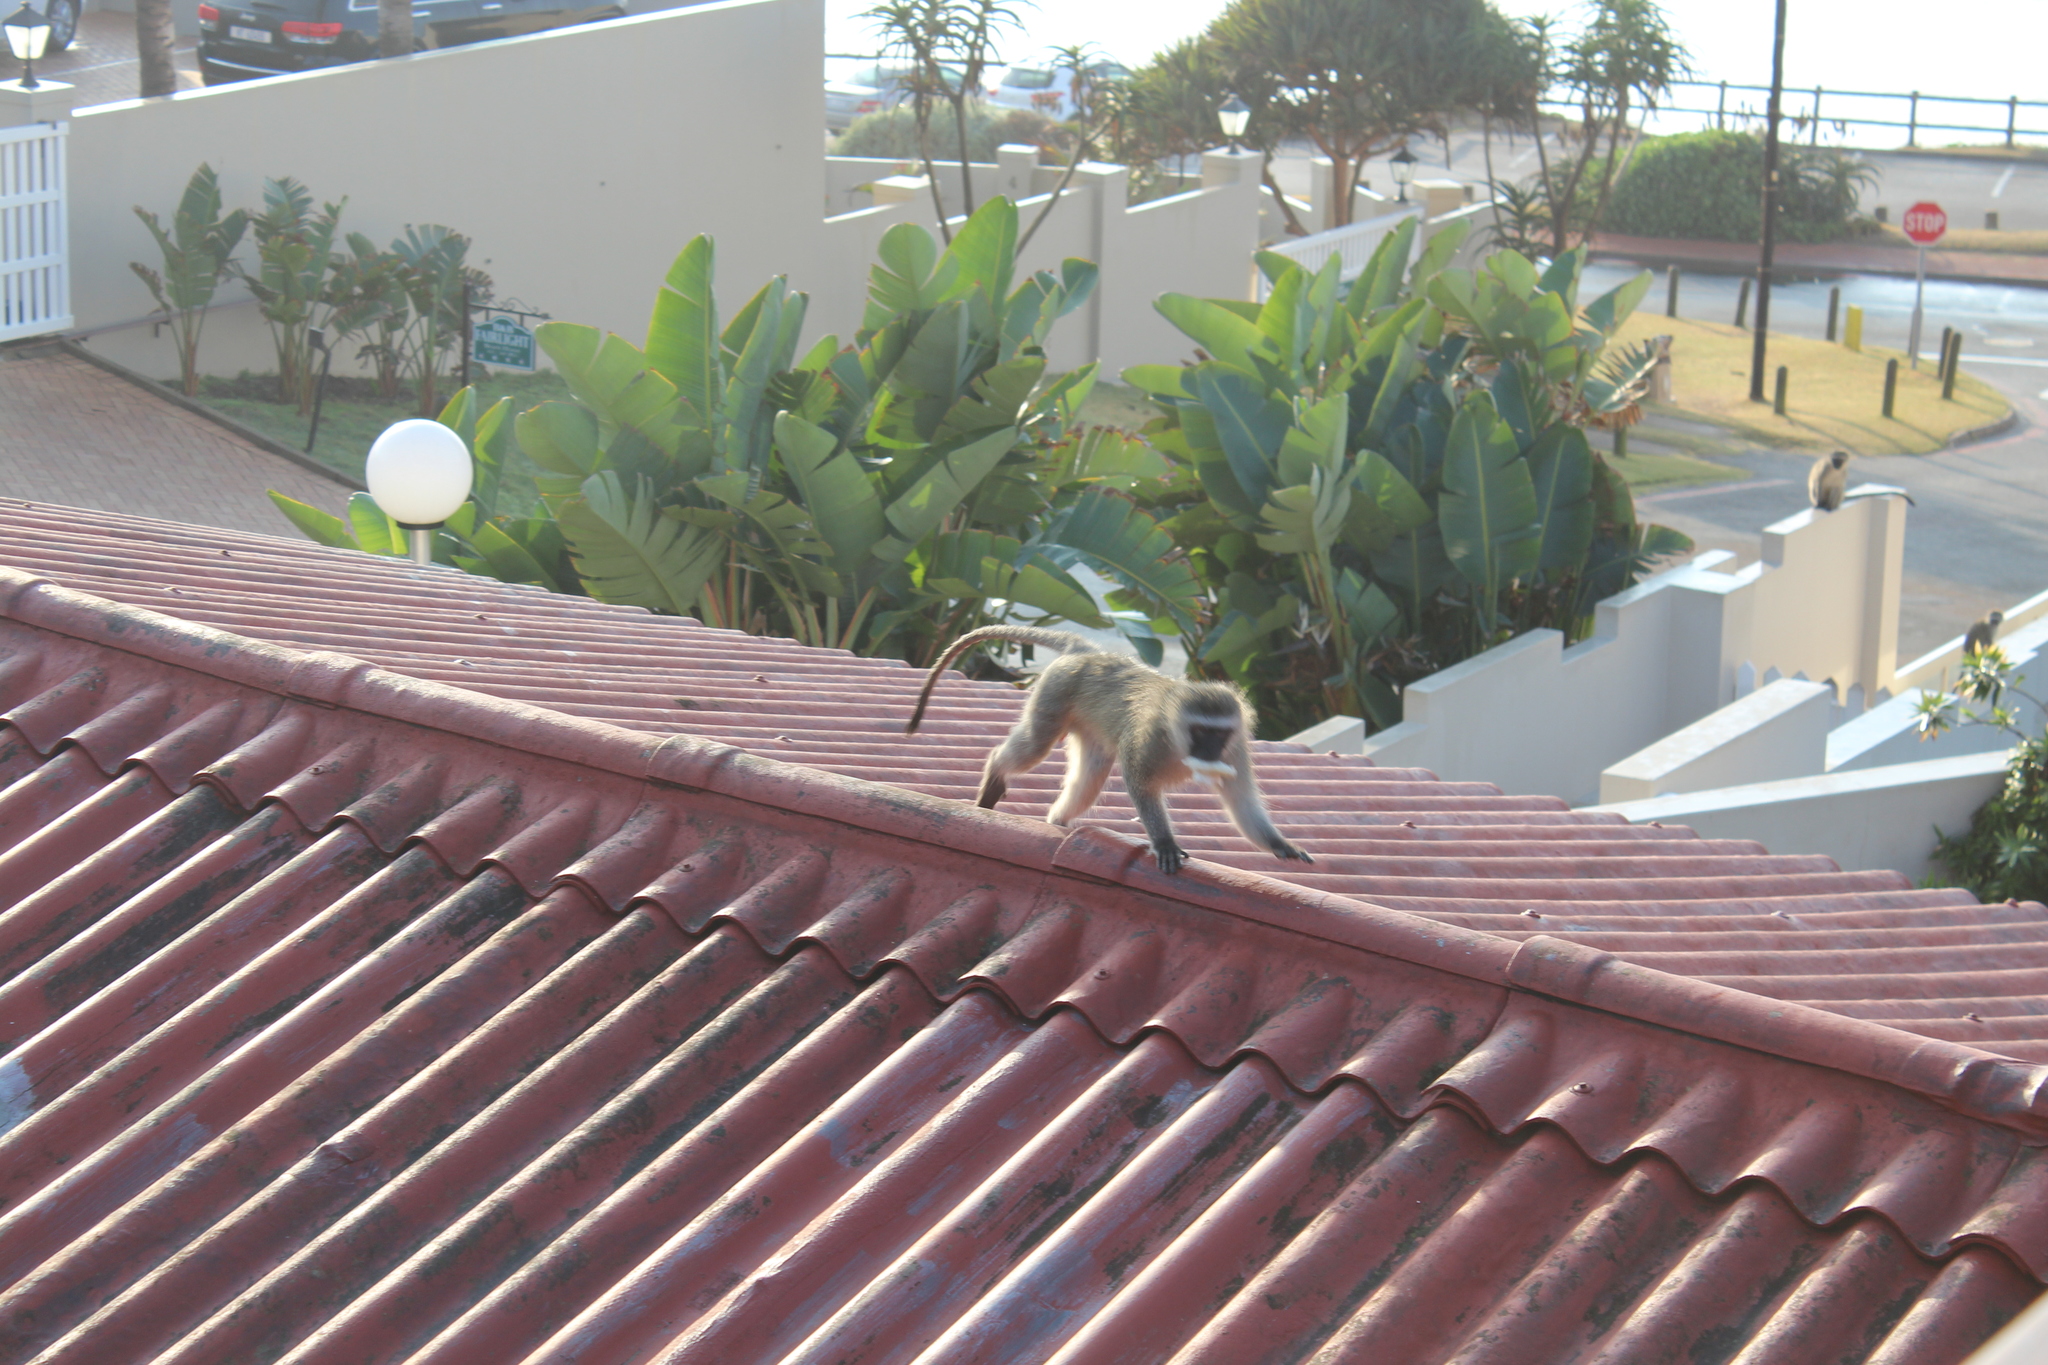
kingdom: Animalia
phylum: Chordata
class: Mammalia
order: Primates
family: Cercopithecidae
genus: Chlorocebus
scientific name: Chlorocebus pygerythrus
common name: Vervet monkey
